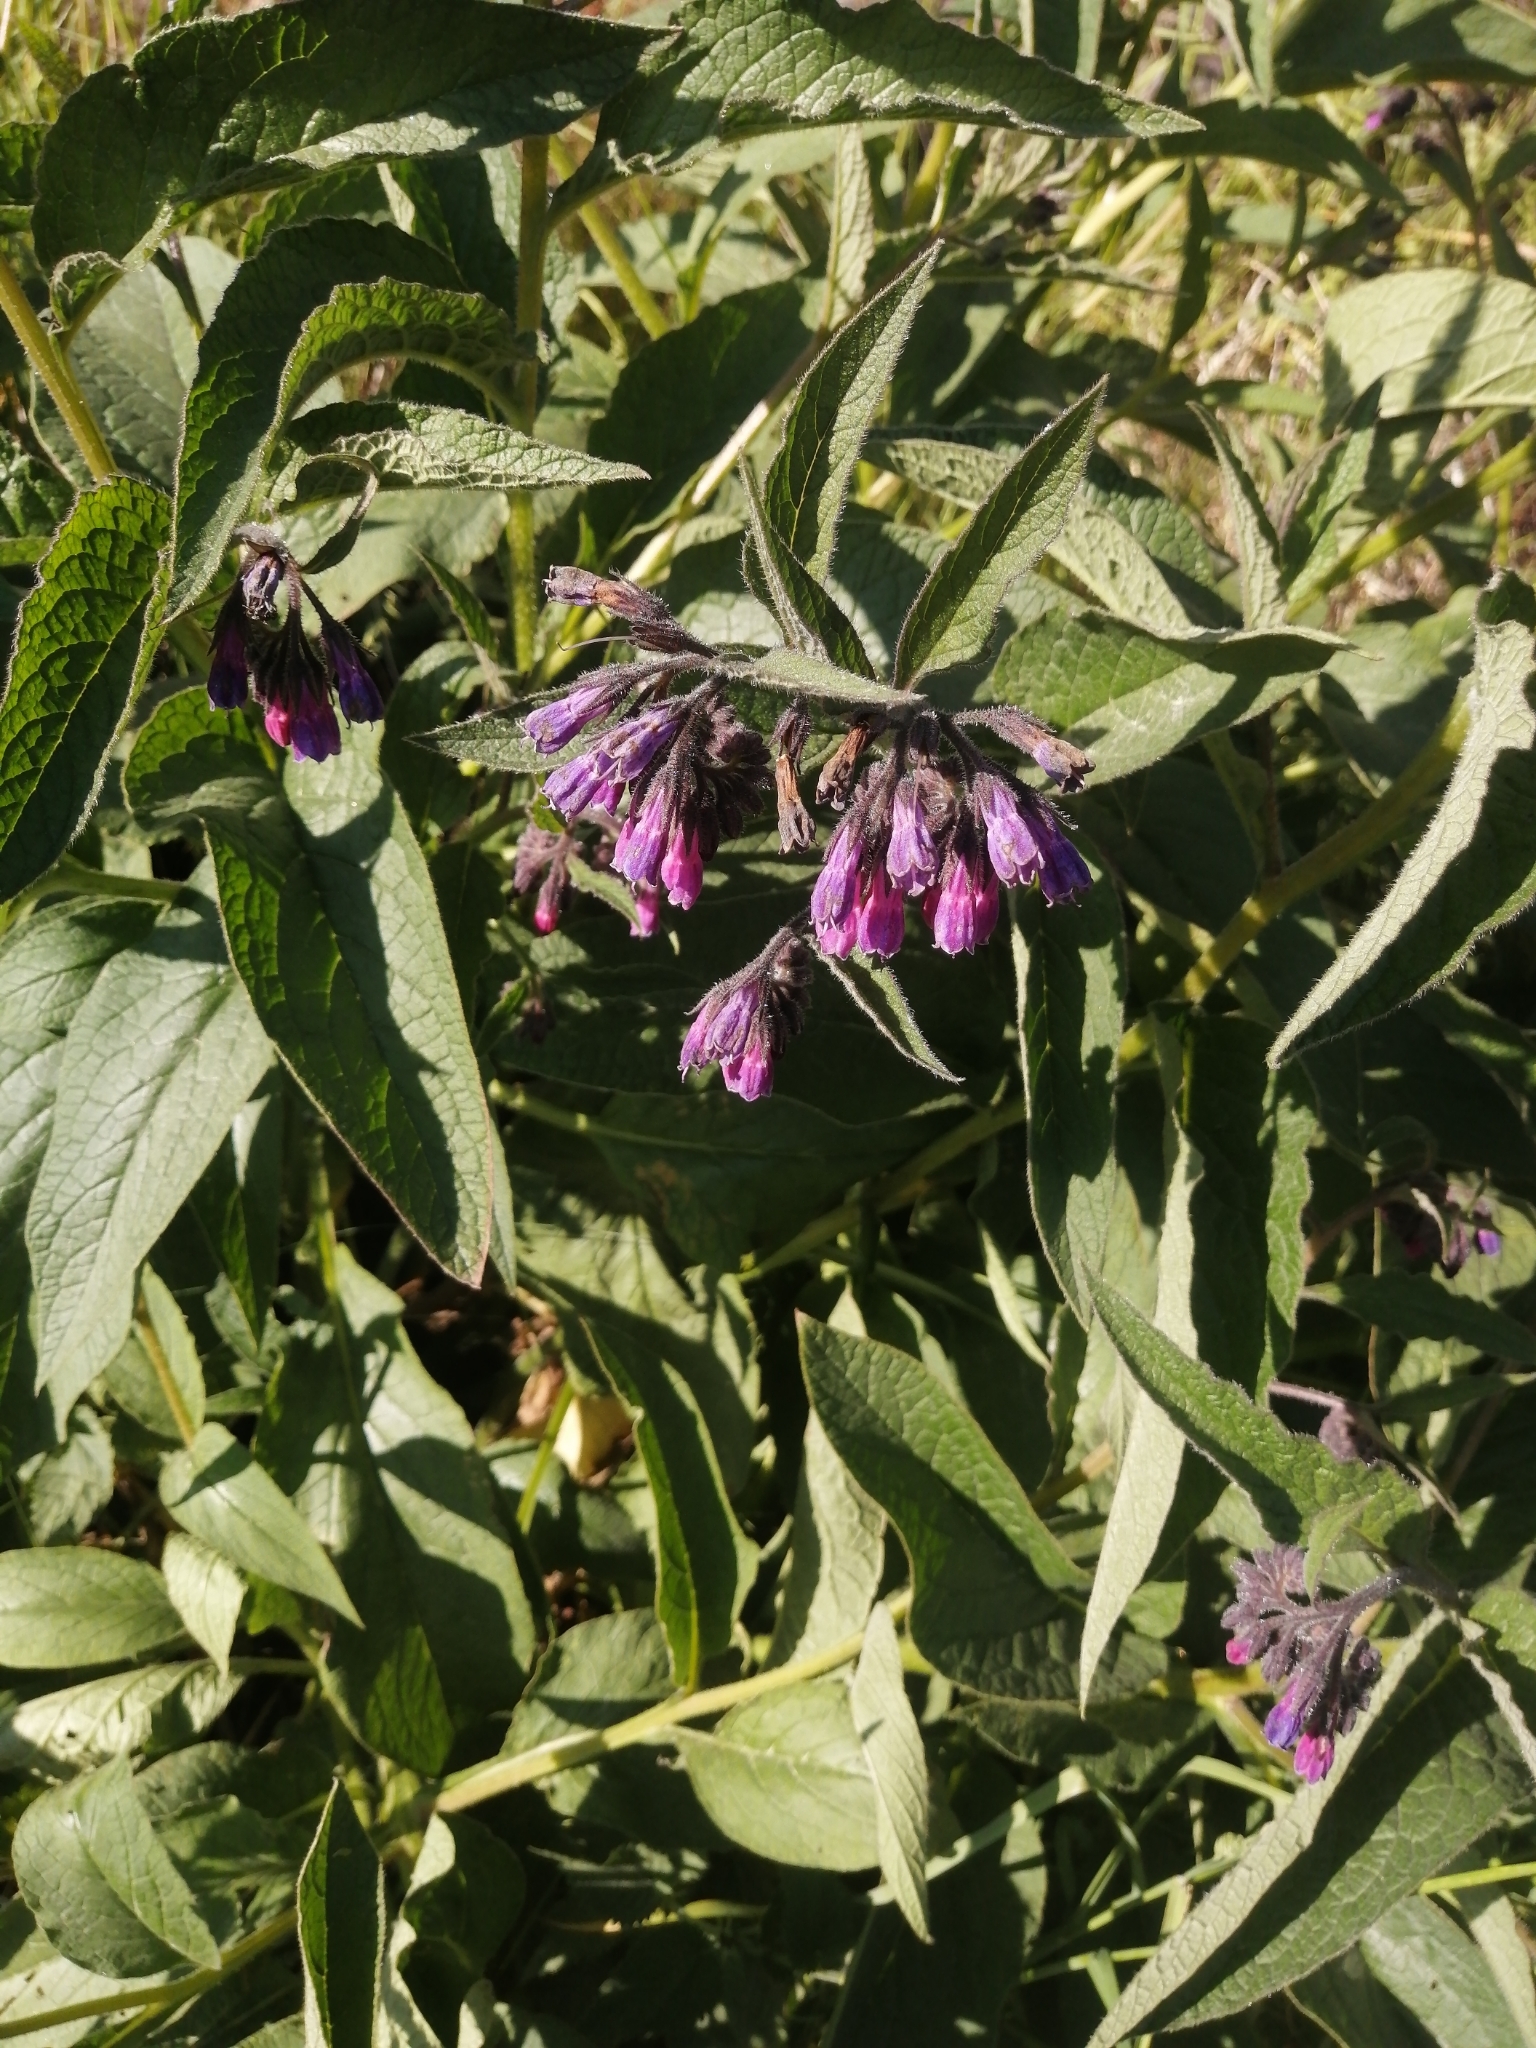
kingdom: Plantae
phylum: Tracheophyta
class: Magnoliopsida
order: Boraginales
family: Boraginaceae
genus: Symphytum
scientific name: Symphytum officinale
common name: Common comfrey
